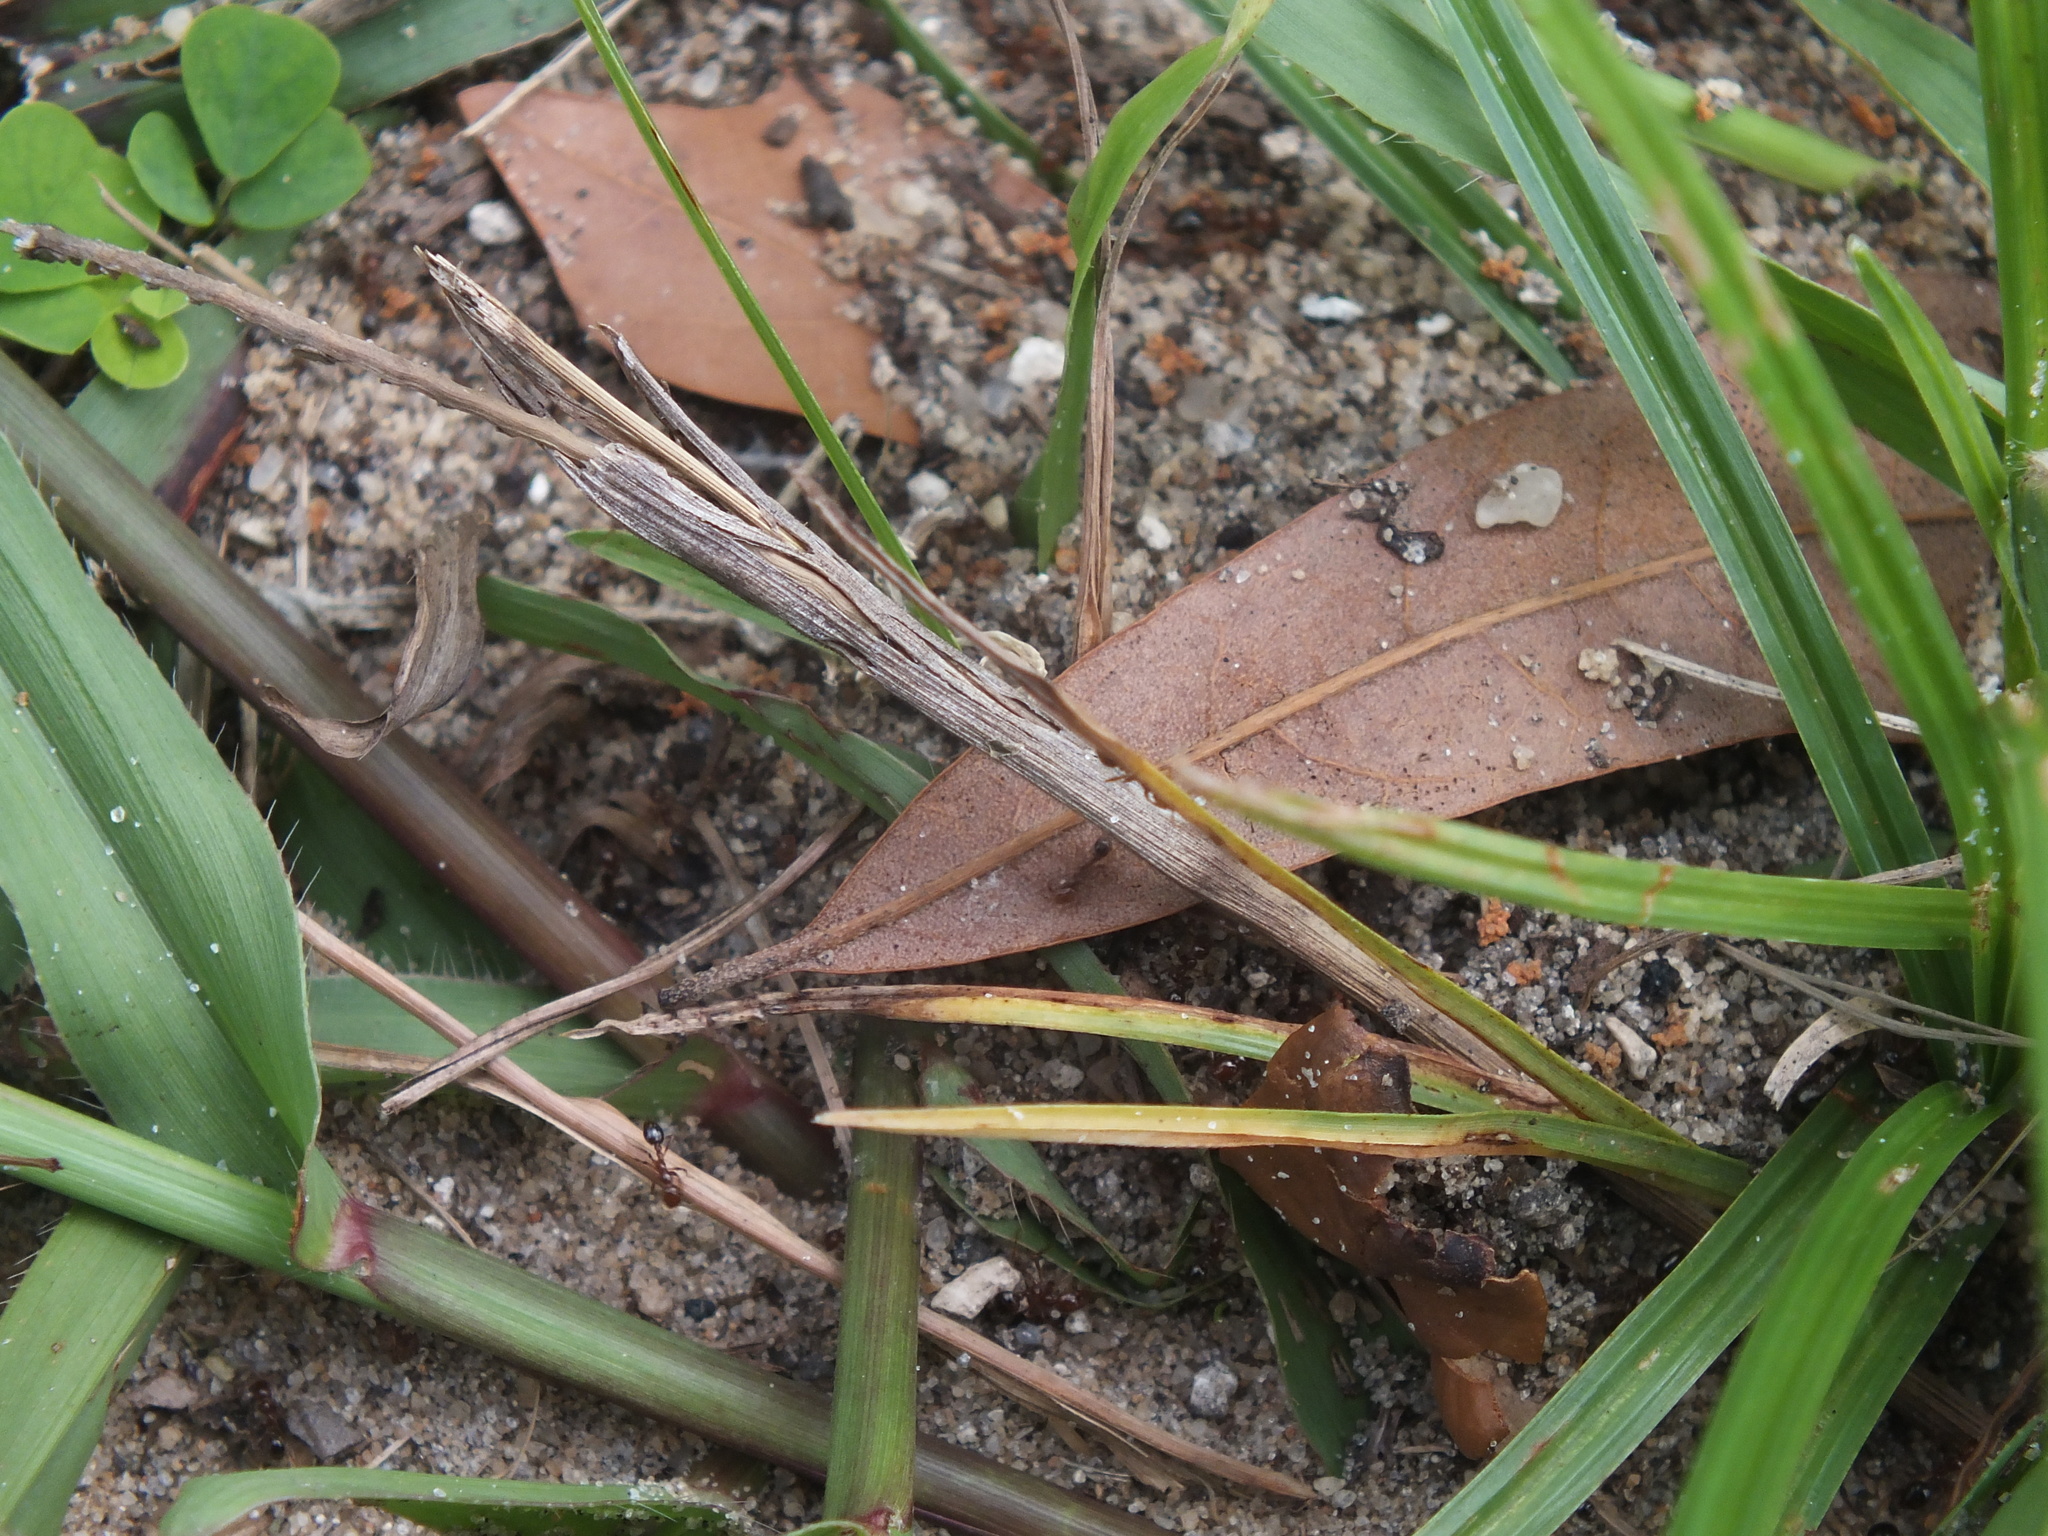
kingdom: Animalia
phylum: Arthropoda
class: Insecta
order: Hymenoptera
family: Formicidae
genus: Solenopsis
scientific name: Solenopsis invicta
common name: Red imported fire ant
